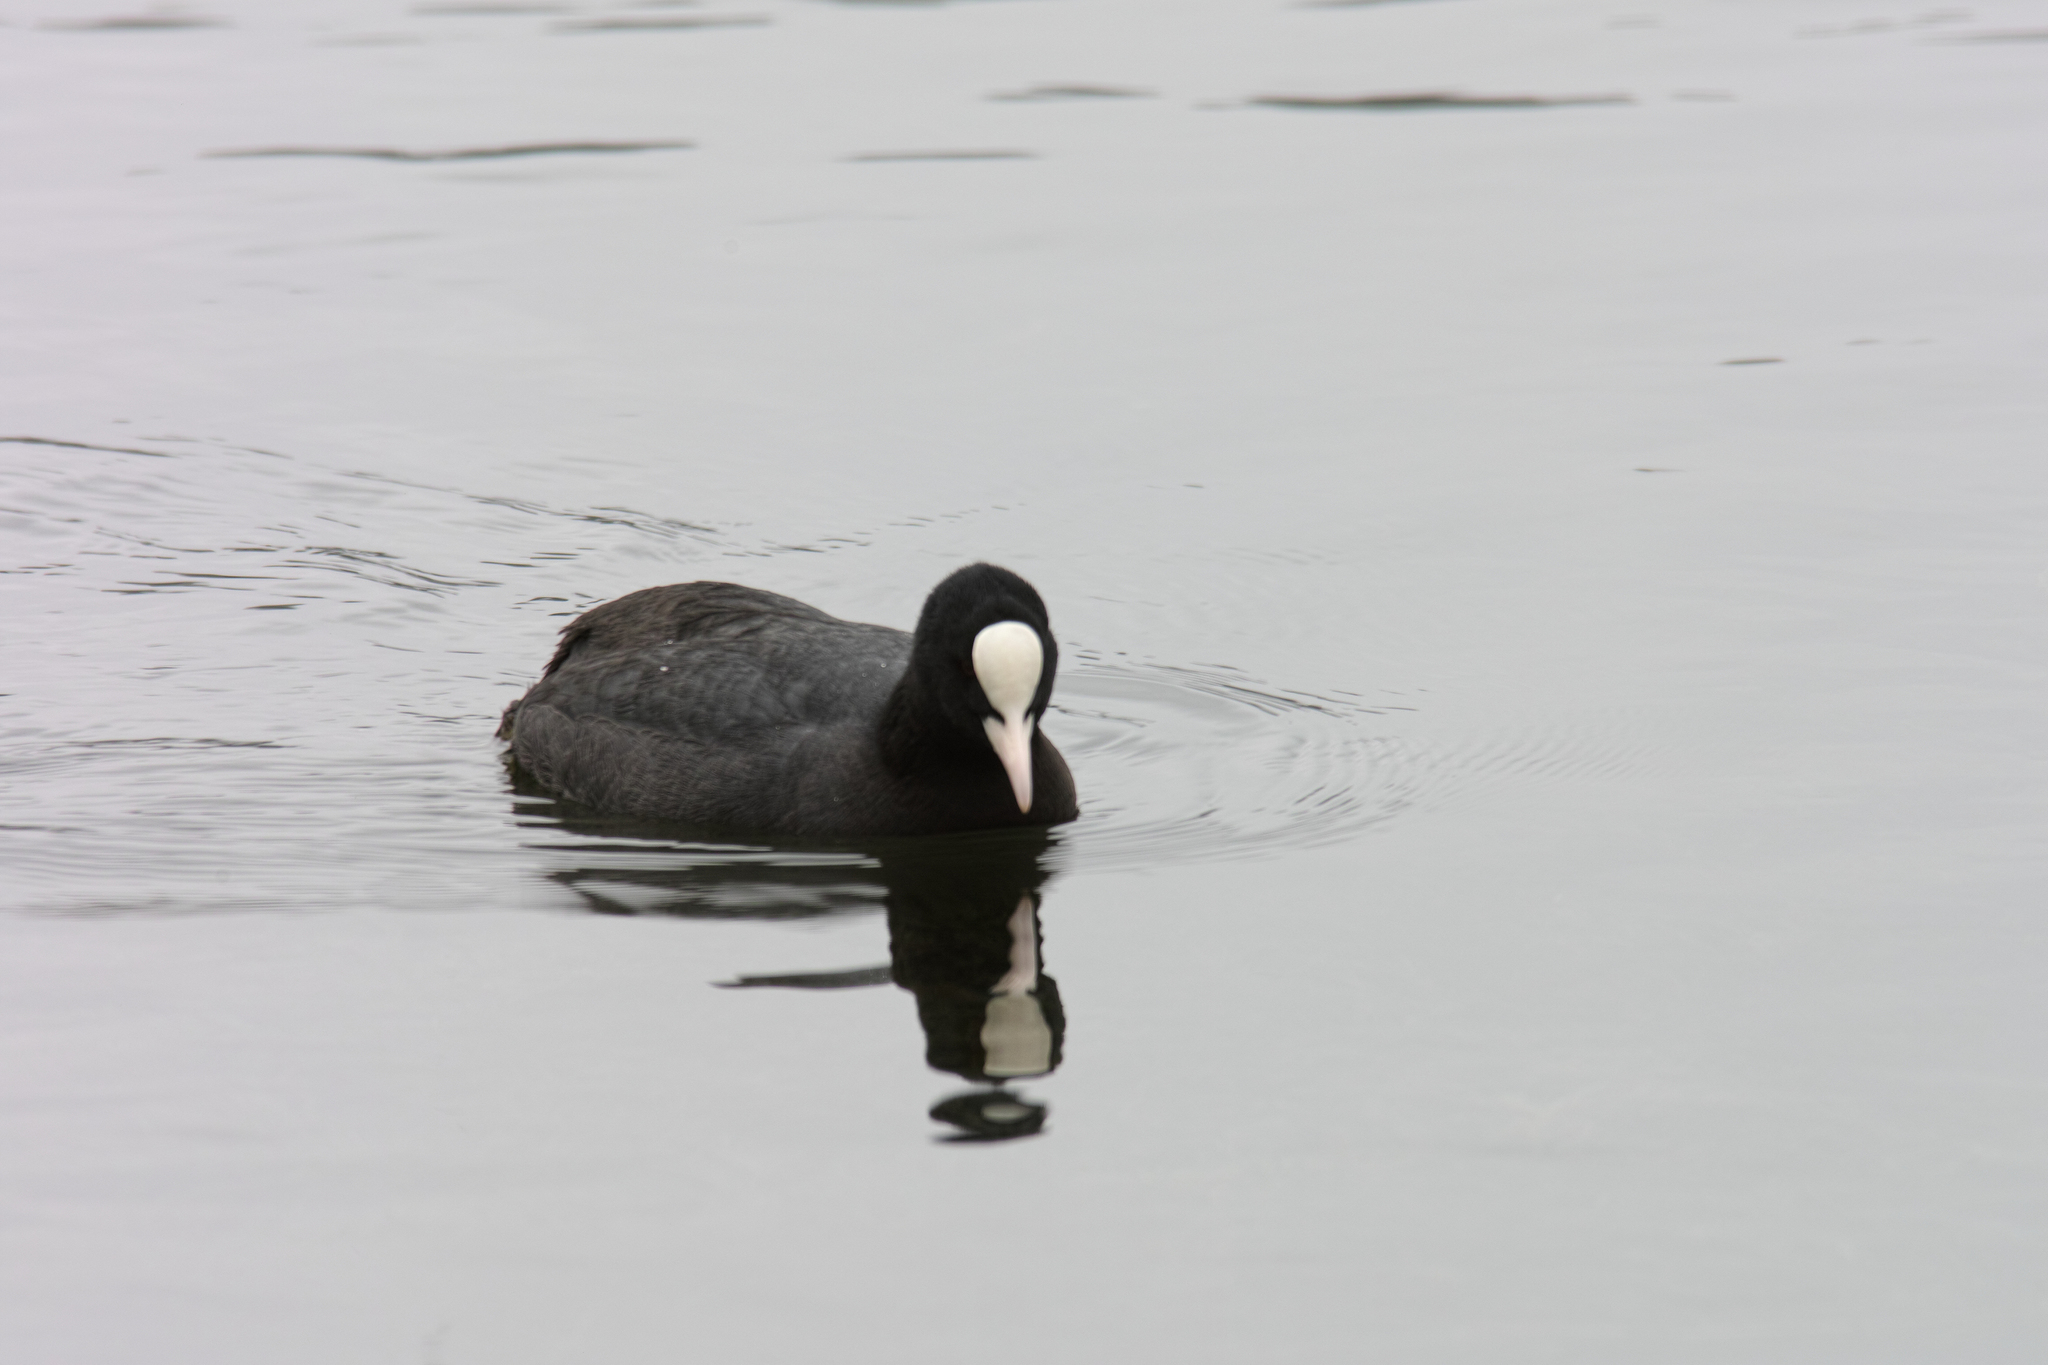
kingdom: Animalia
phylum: Chordata
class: Aves
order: Gruiformes
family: Rallidae
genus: Fulica
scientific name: Fulica atra
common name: Eurasian coot
